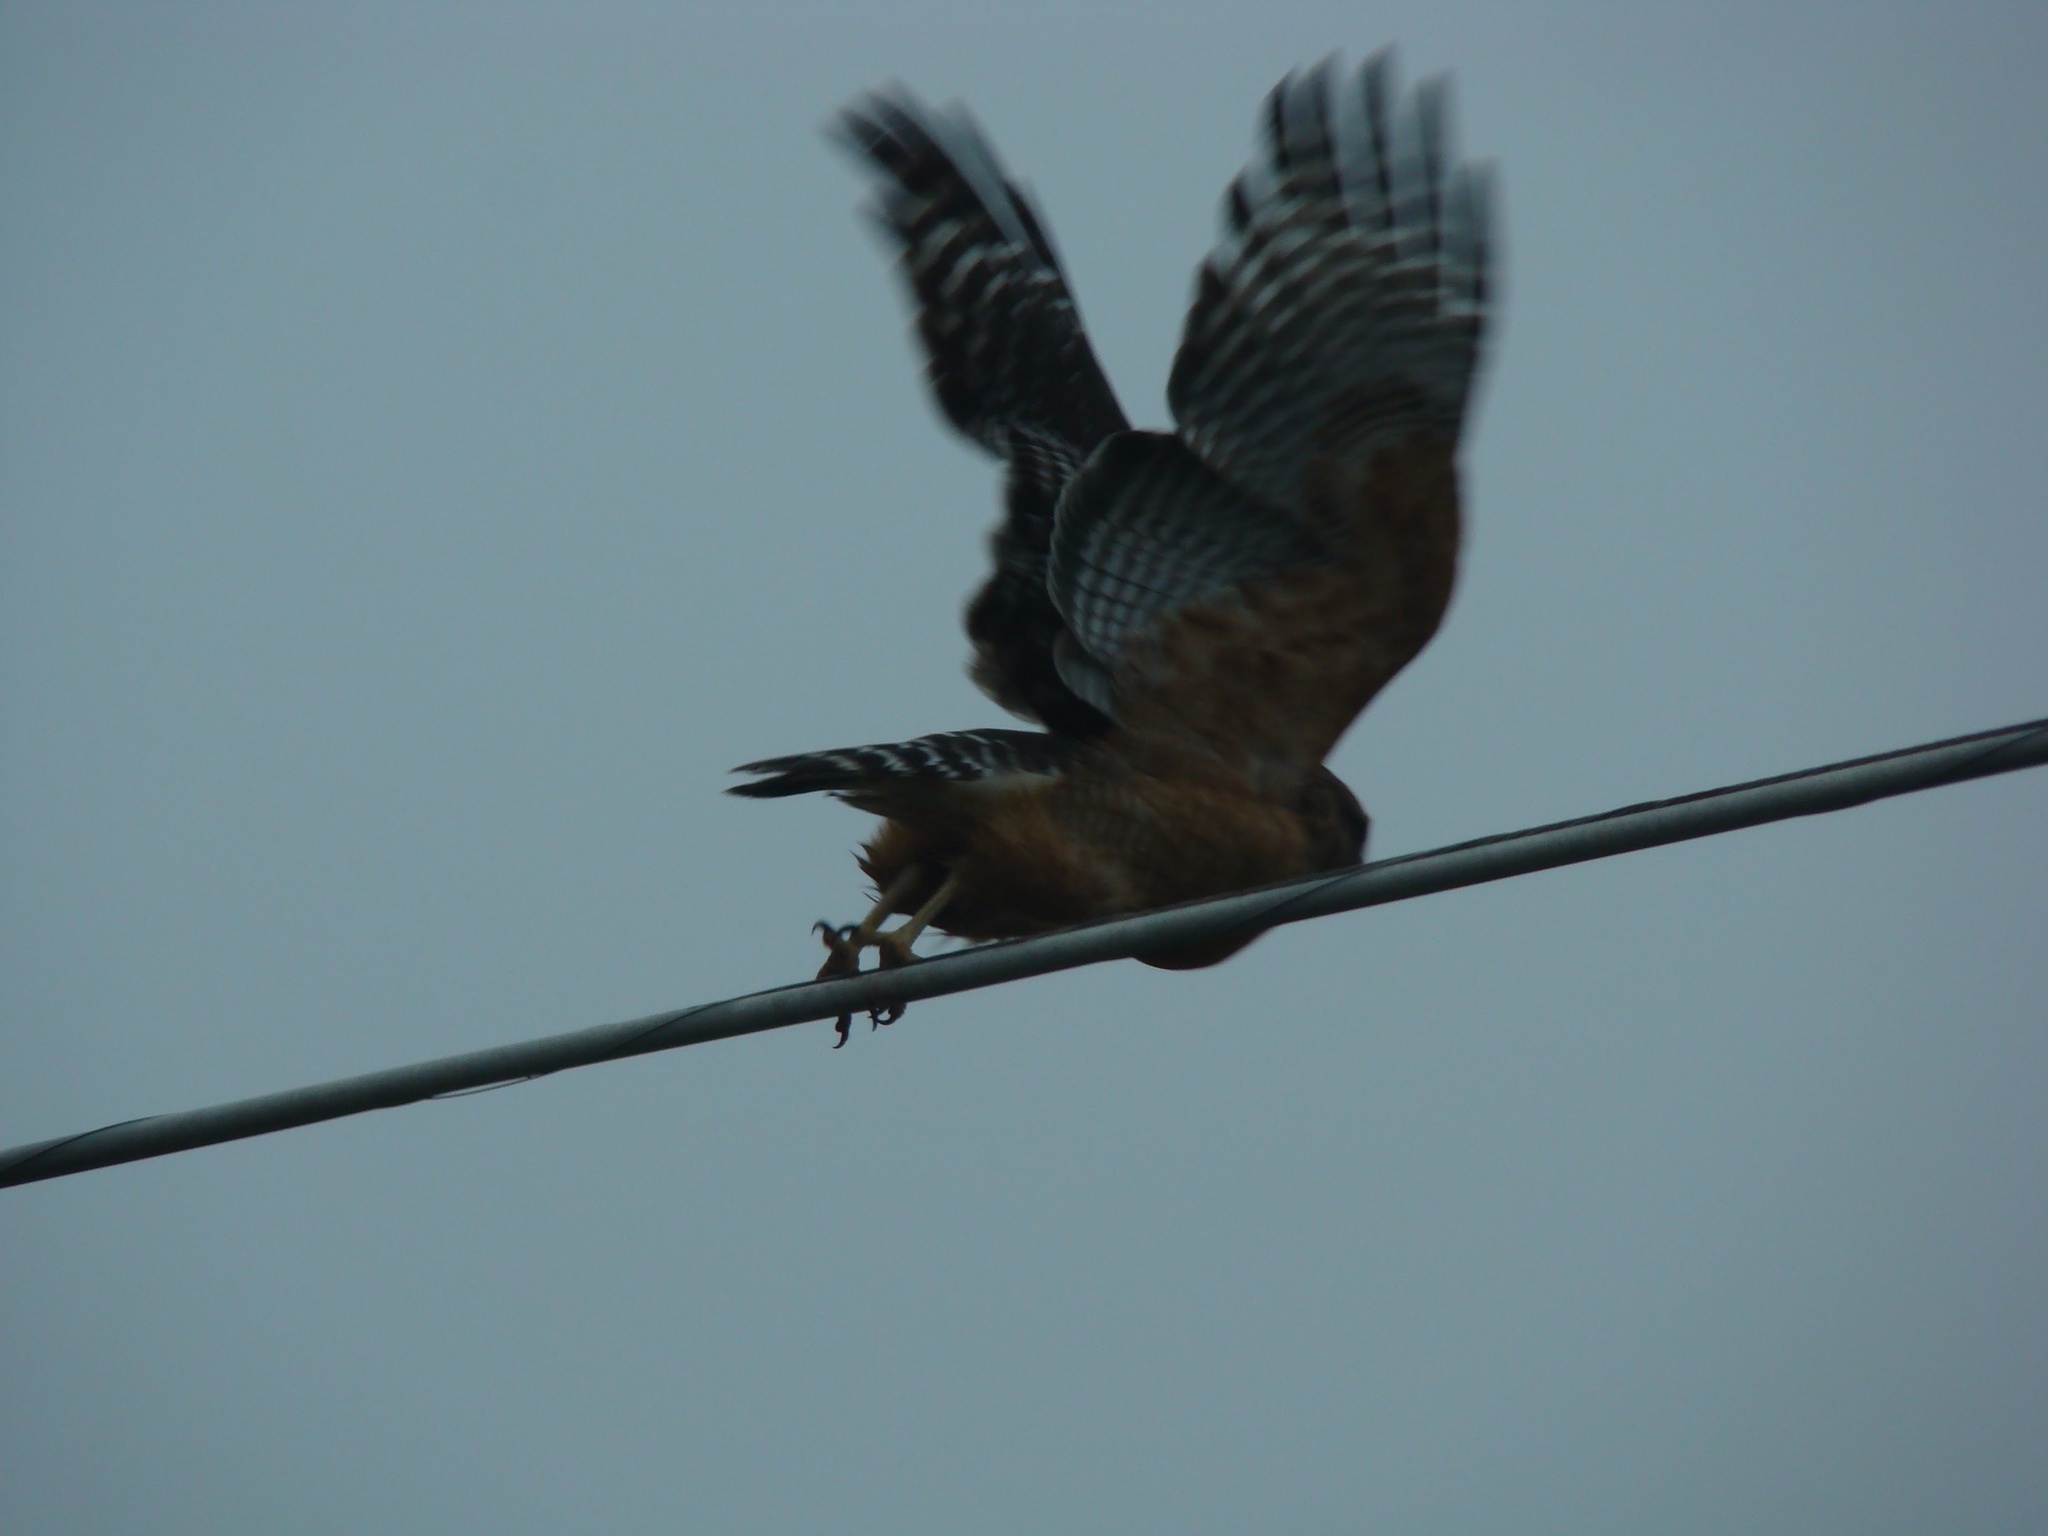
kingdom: Animalia
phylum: Chordata
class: Aves
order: Accipitriformes
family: Accipitridae
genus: Buteo
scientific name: Buteo lineatus
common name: Red-shouldered hawk
